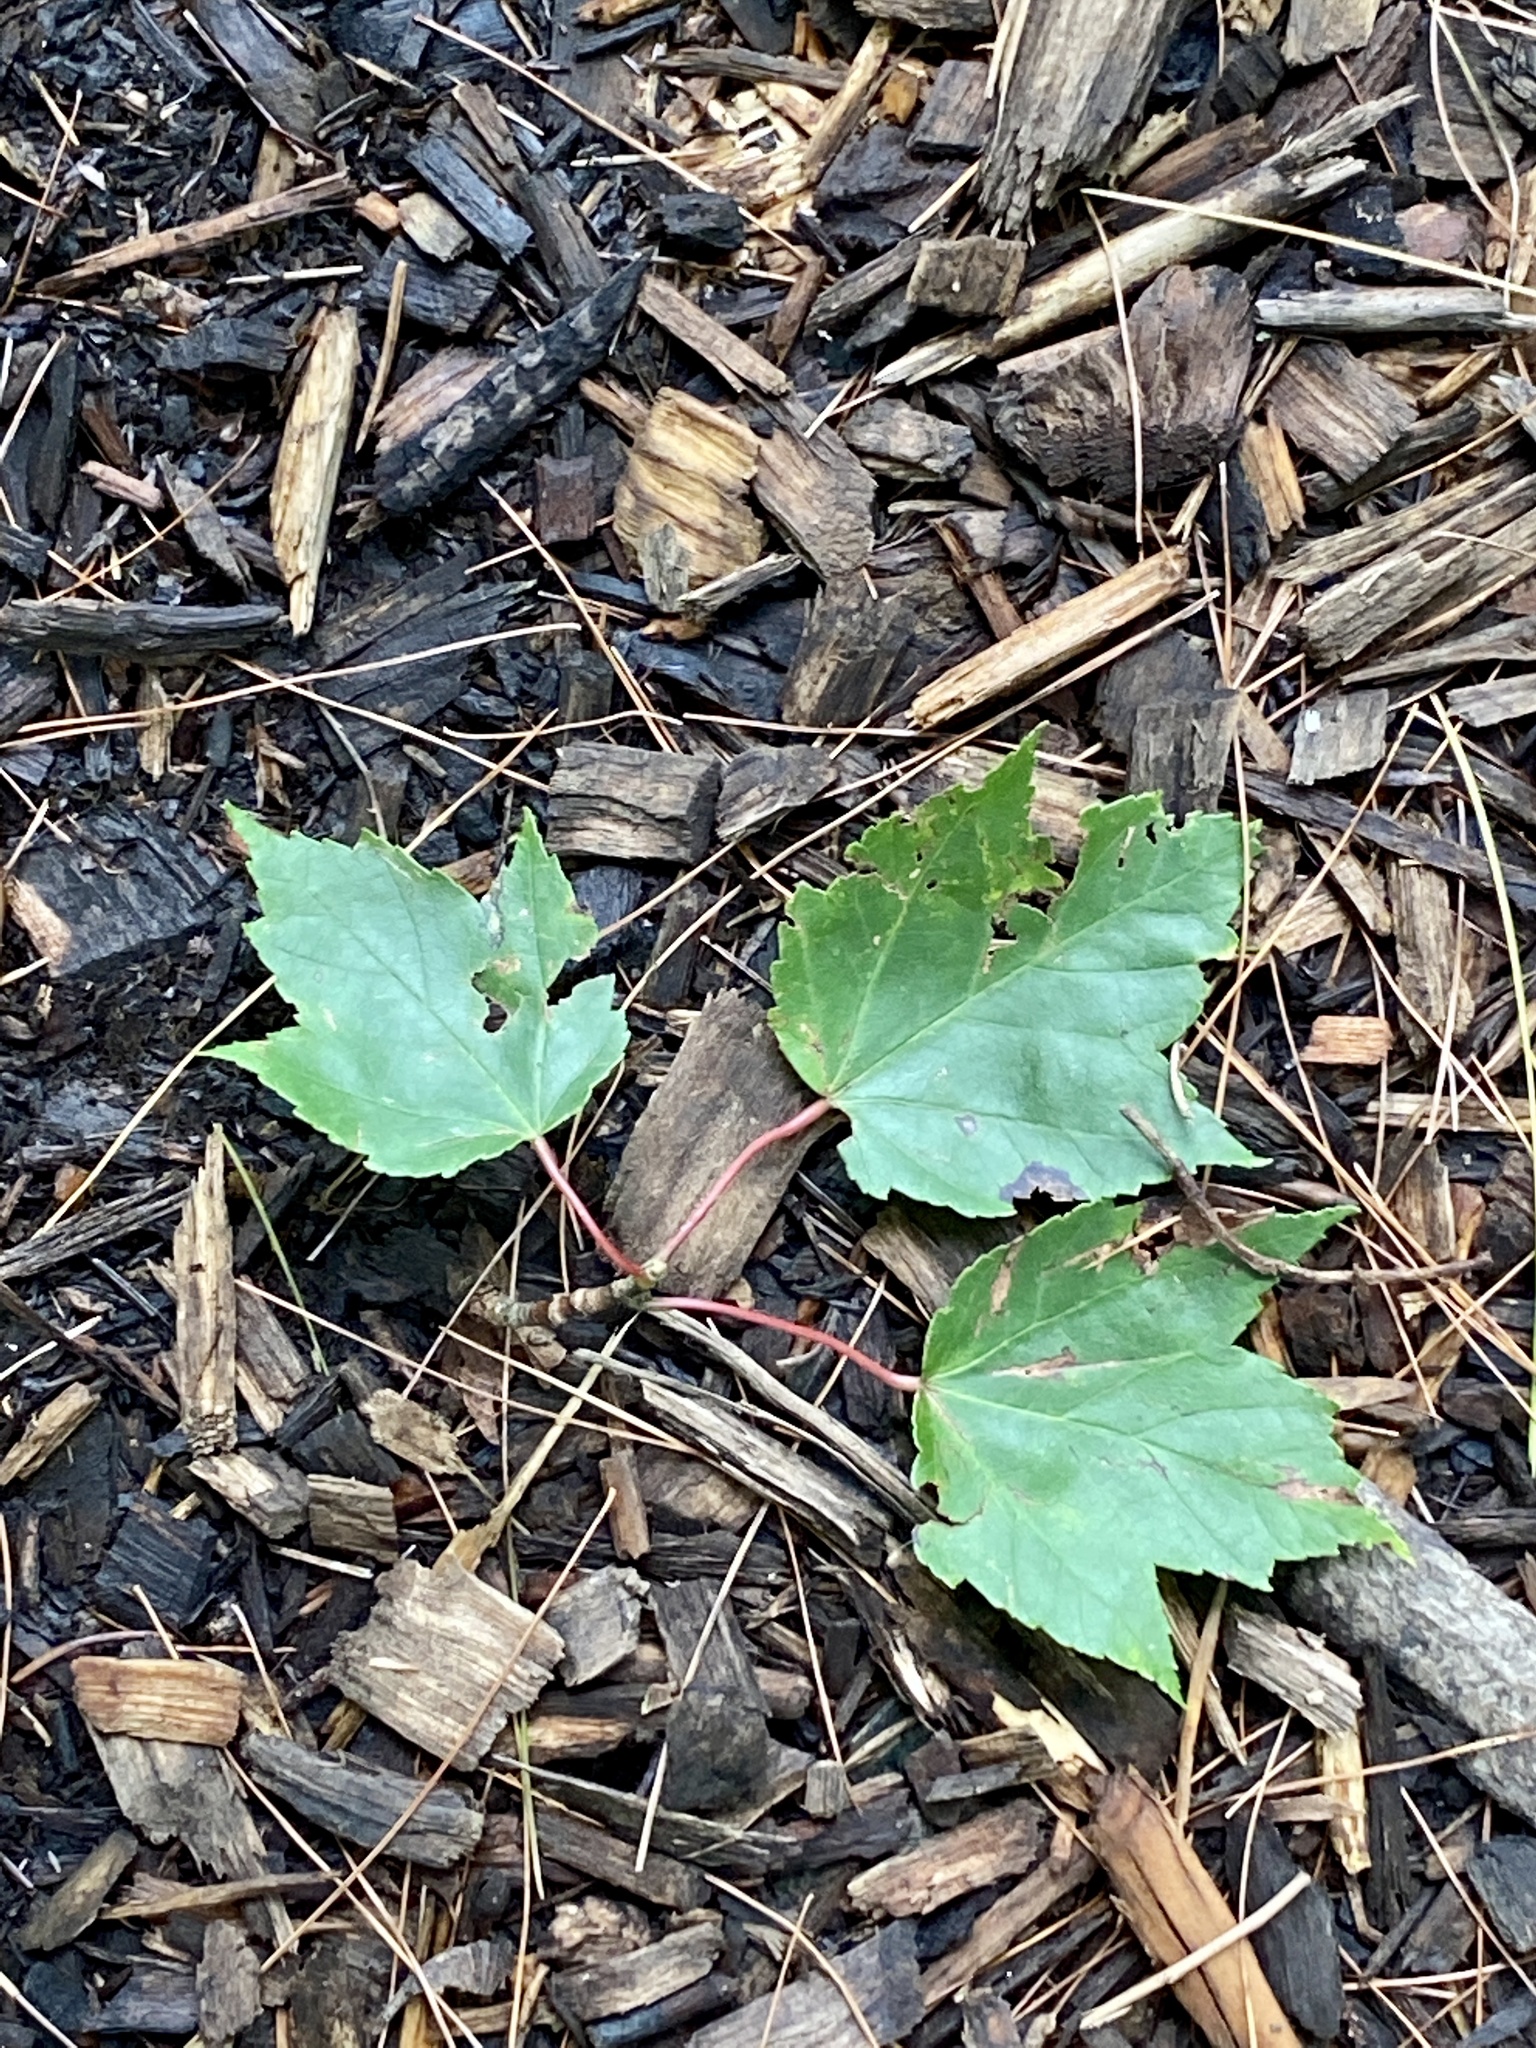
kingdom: Plantae
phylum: Tracheophyta
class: Magnoliopsida
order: Sapindales
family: Sapindaceae
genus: Acer
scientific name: Acer rubrum
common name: Red maple
